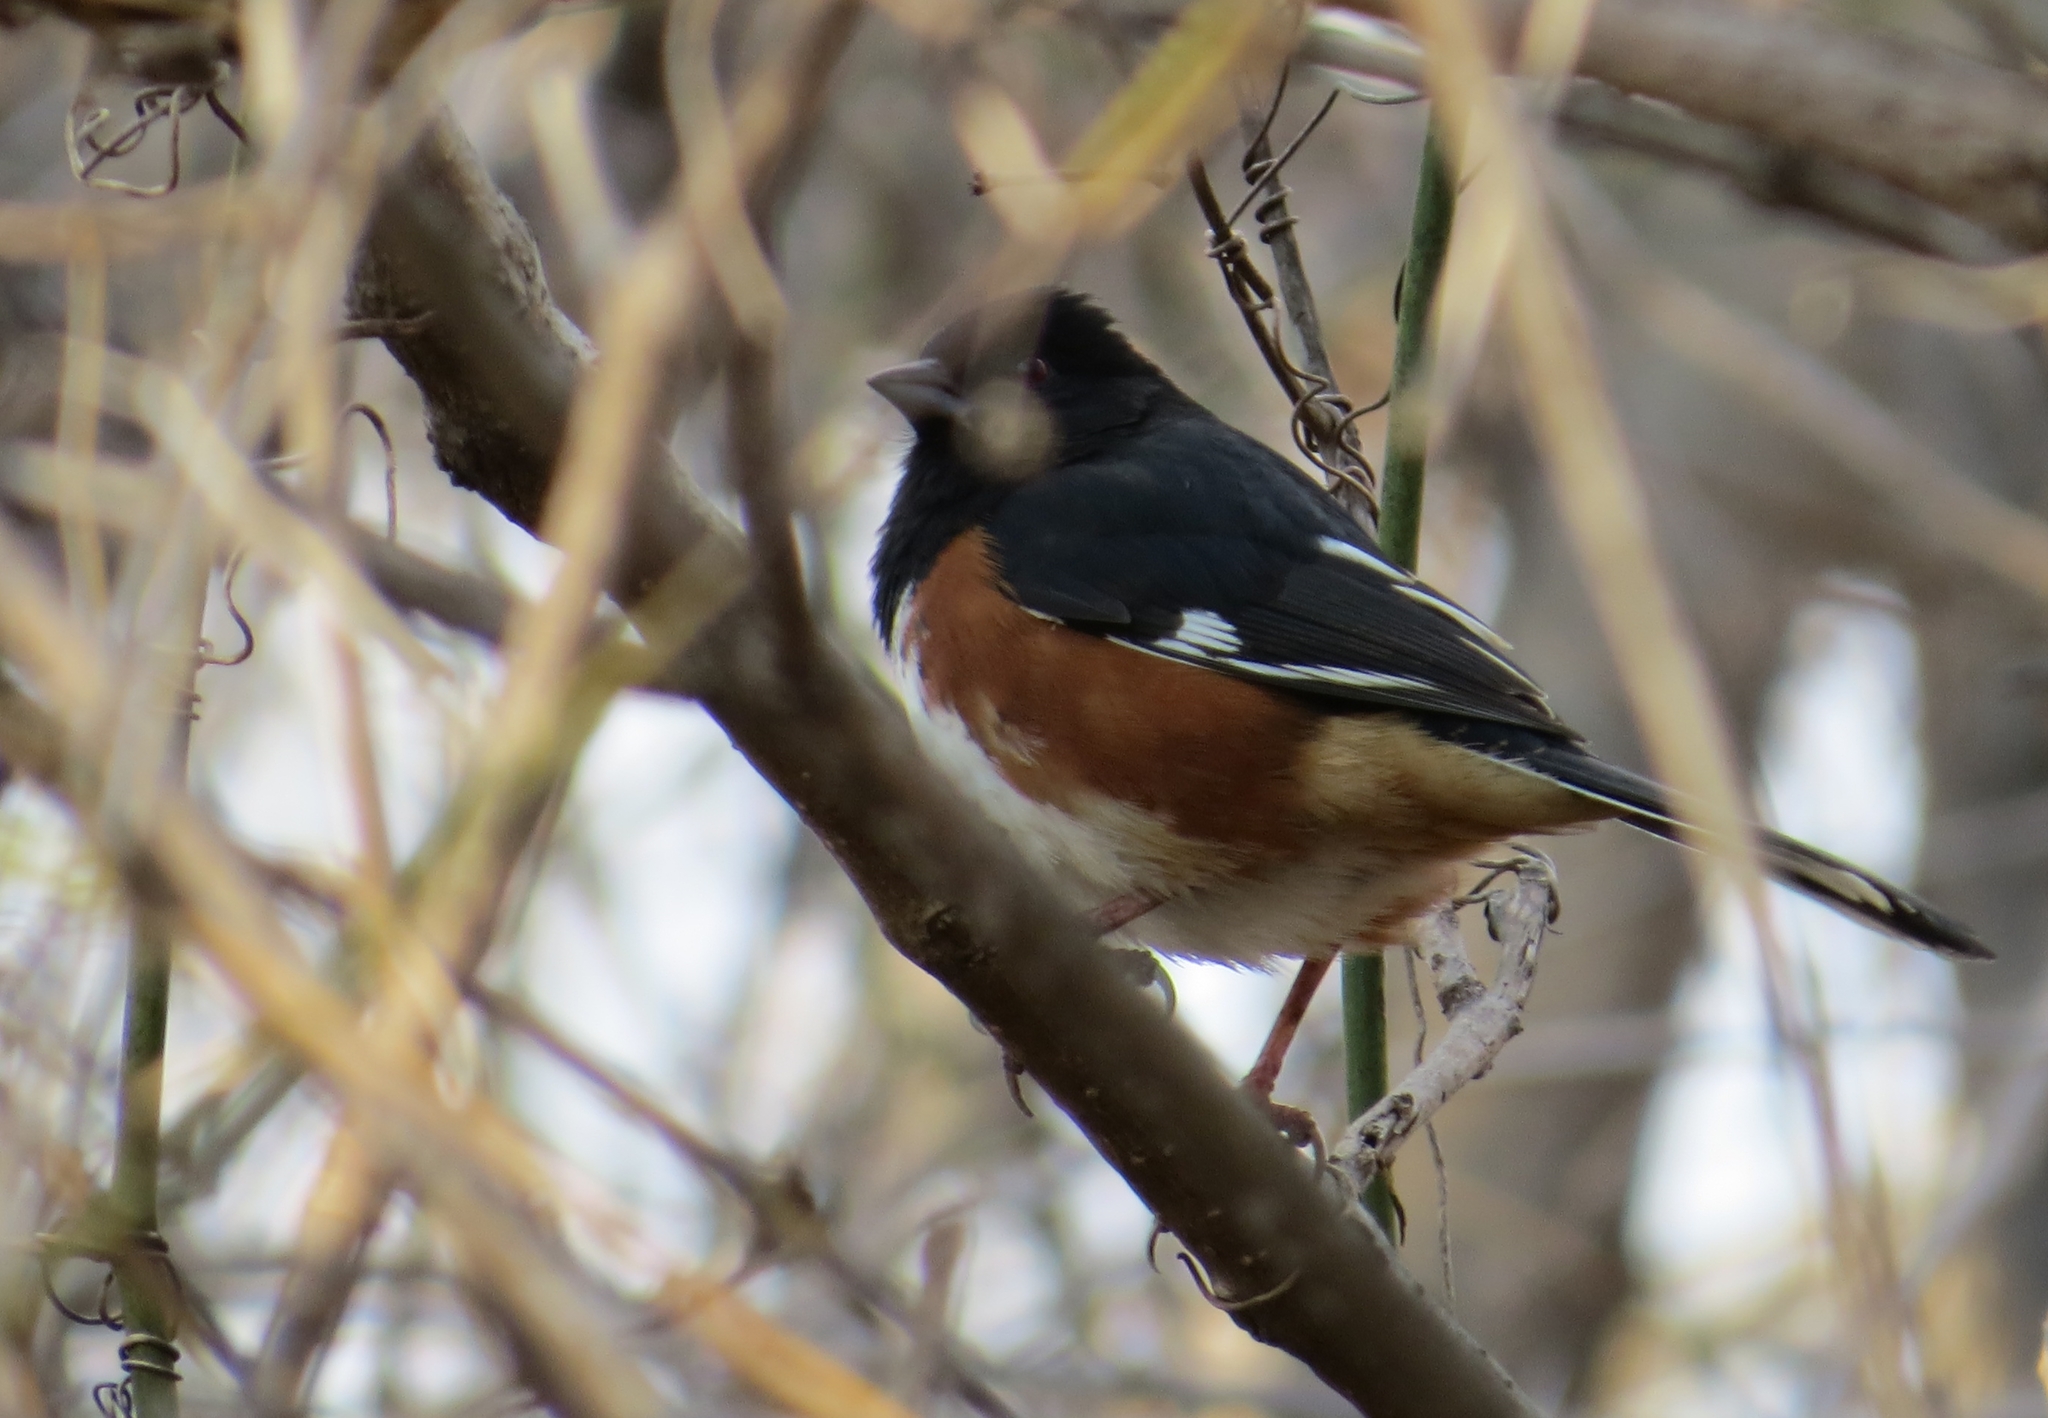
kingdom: Animalia
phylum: Chordata
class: Aves
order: Passeriformes
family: Passerellidae
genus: Pipilo
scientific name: Pipilo erythrophthalmus
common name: Eastern towhee
